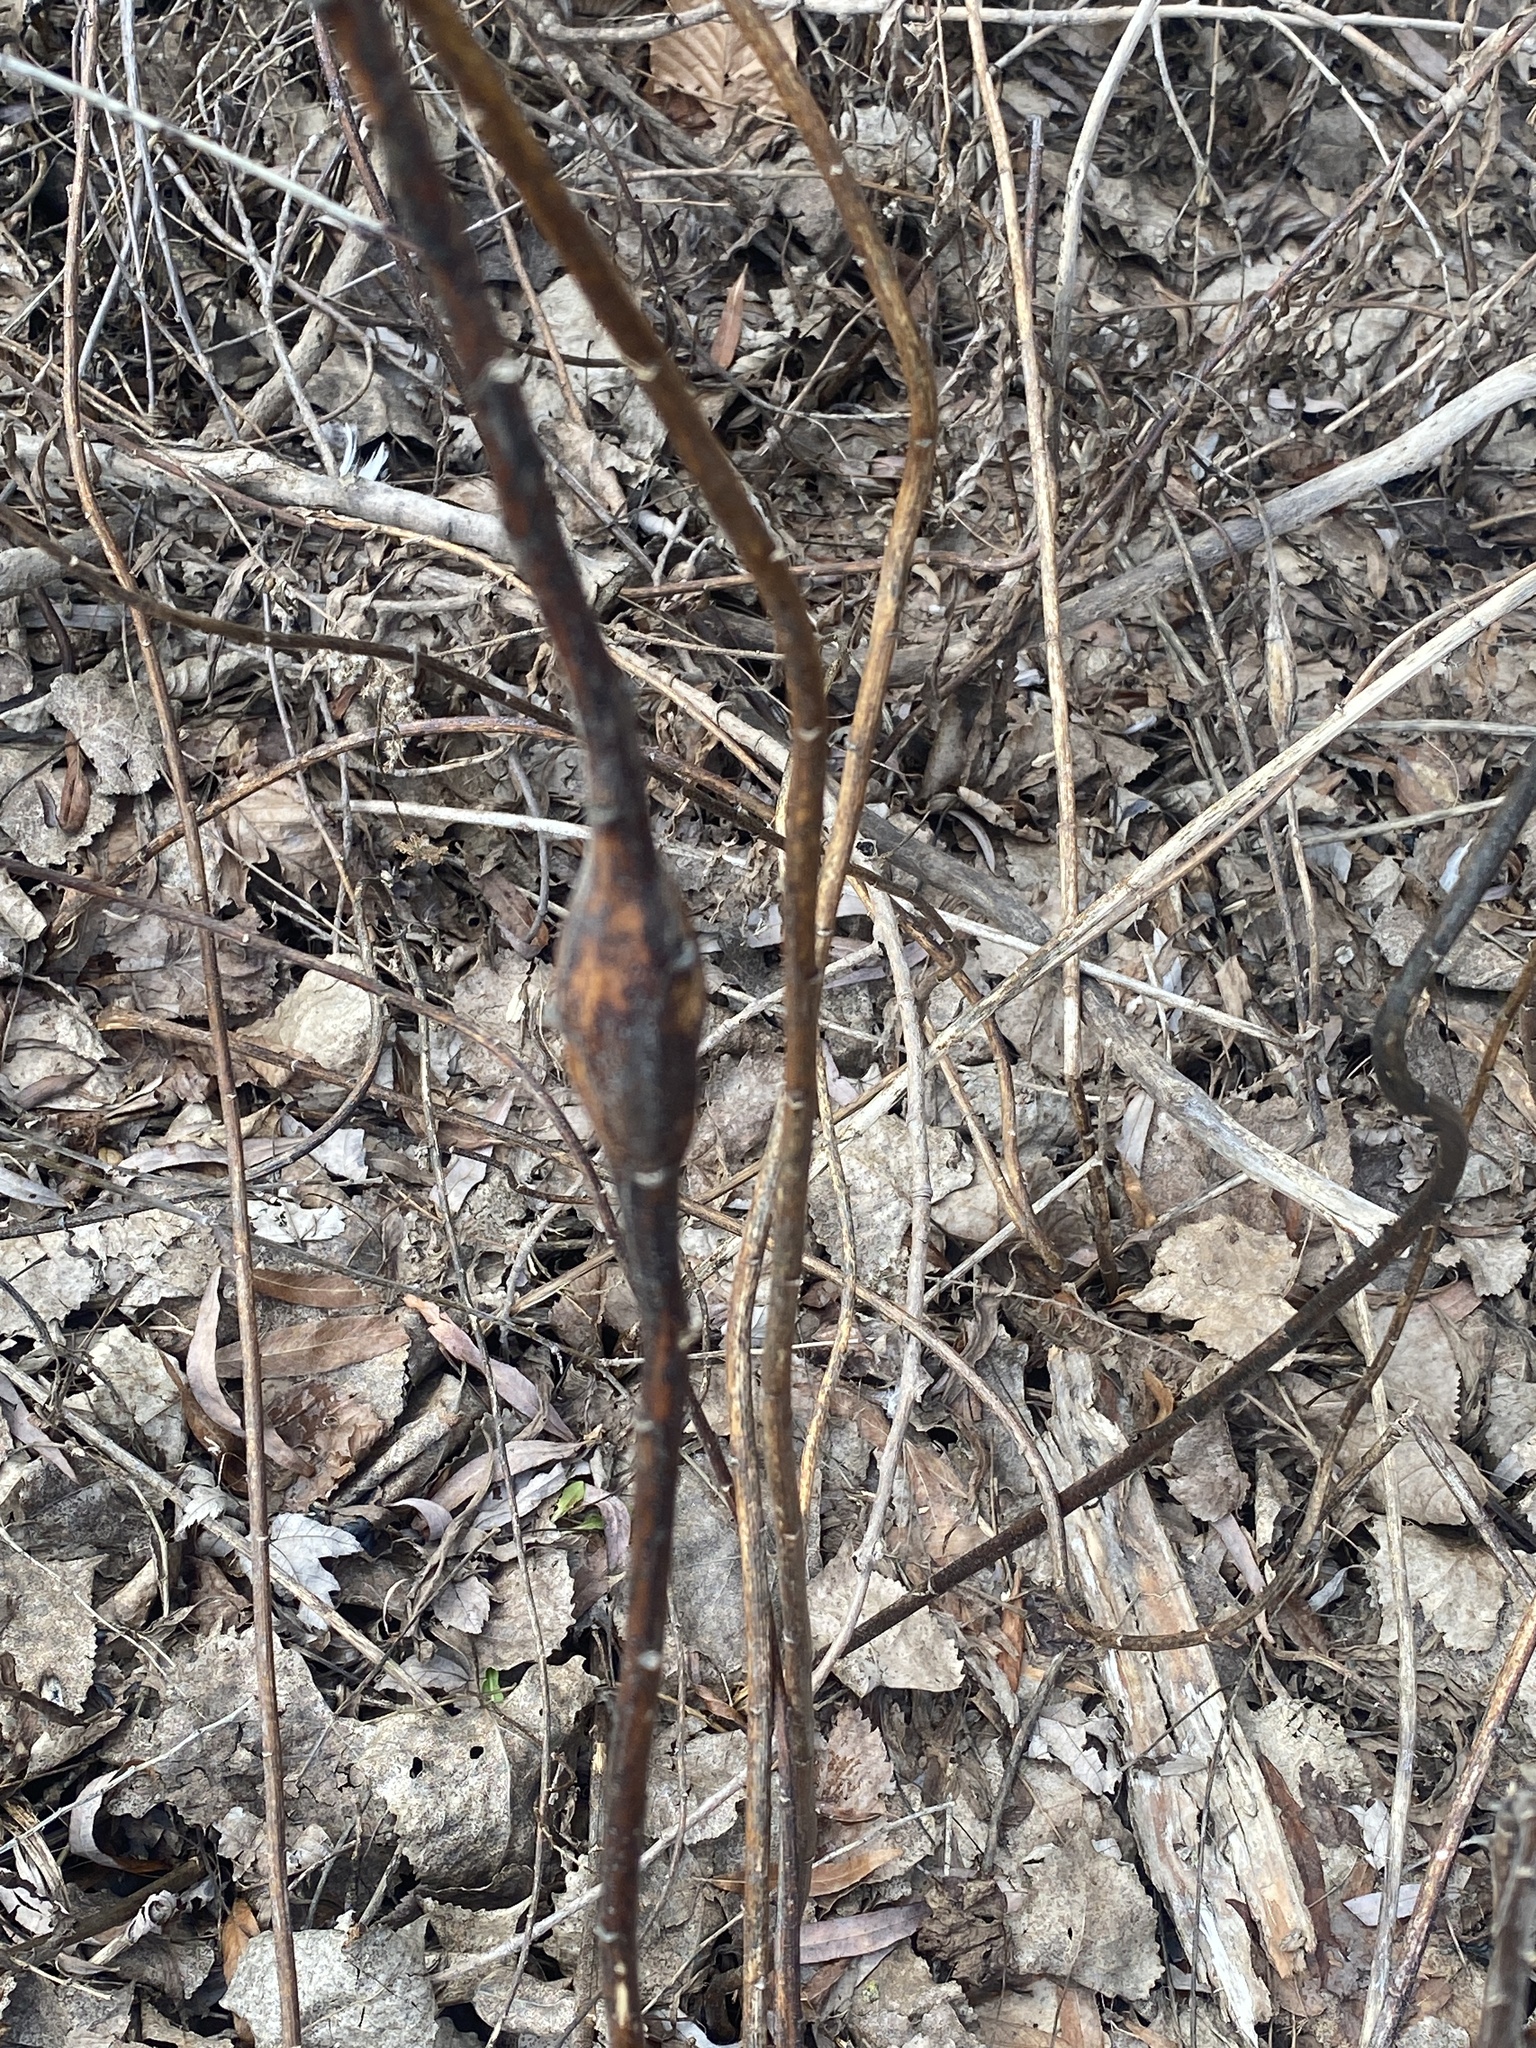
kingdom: Animalia
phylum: Arthropoda
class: Insecta
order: Lepidoptera
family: Gelechiidae
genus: Gnorimoschema
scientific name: Gnorimoschema gallaesolidaginis
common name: Goldenrod elliptical-gall moth
